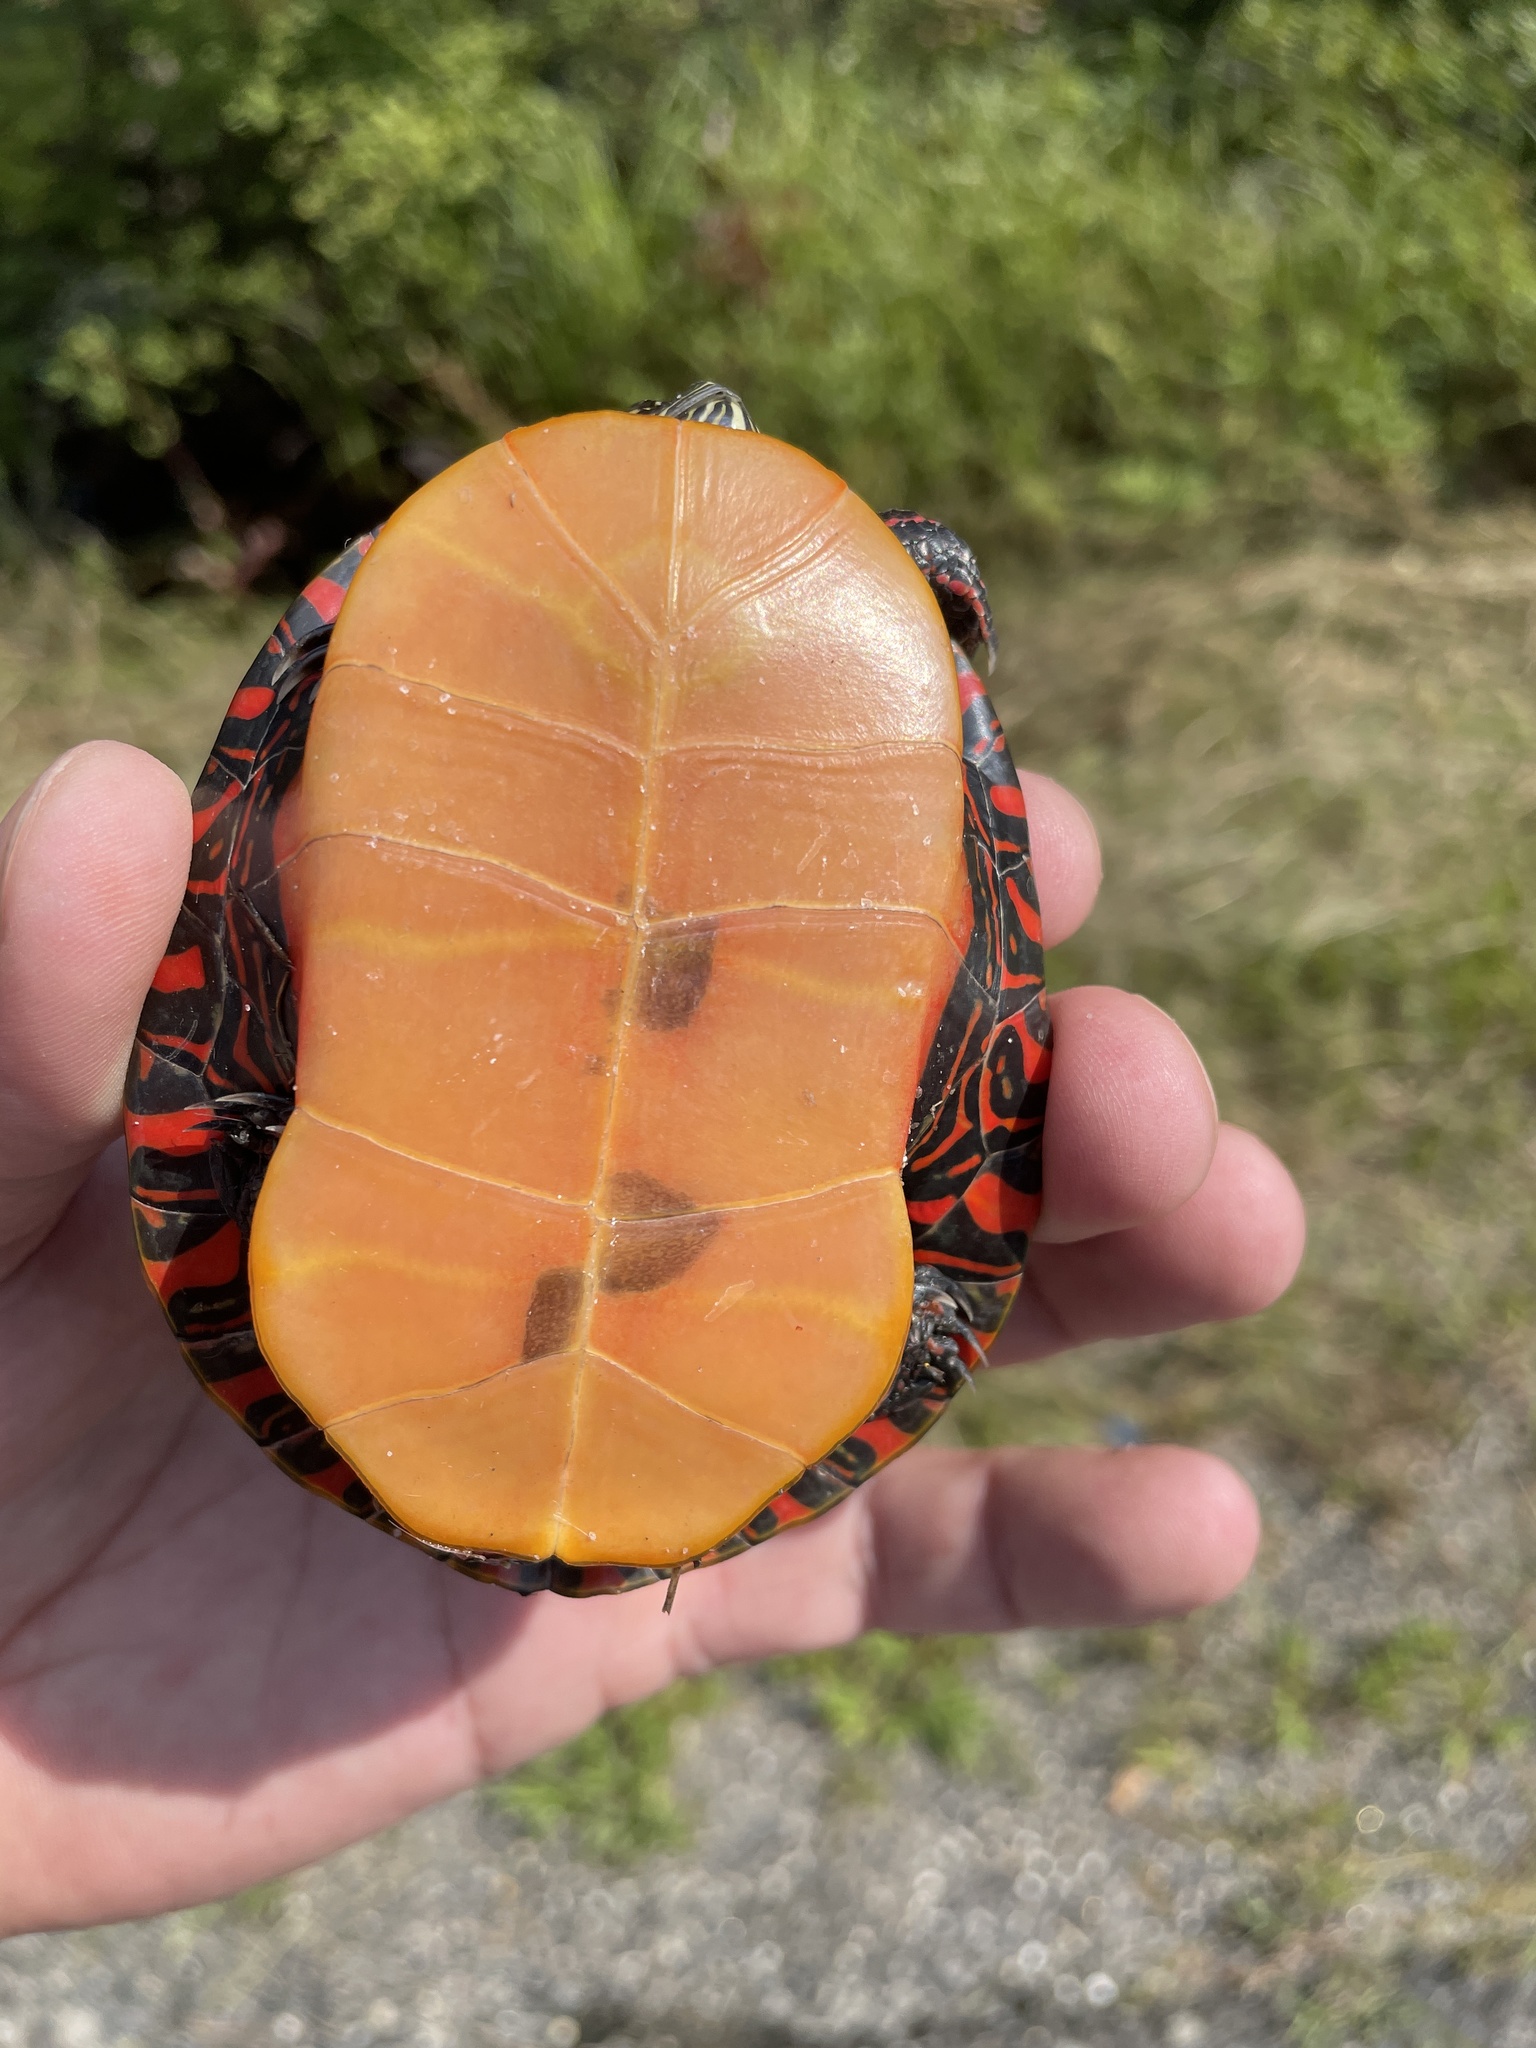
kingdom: Animalia
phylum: Chordata
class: Testudines
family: Emydidae
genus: Chrysemys
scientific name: Chrysemys picta
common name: Painted turtle
